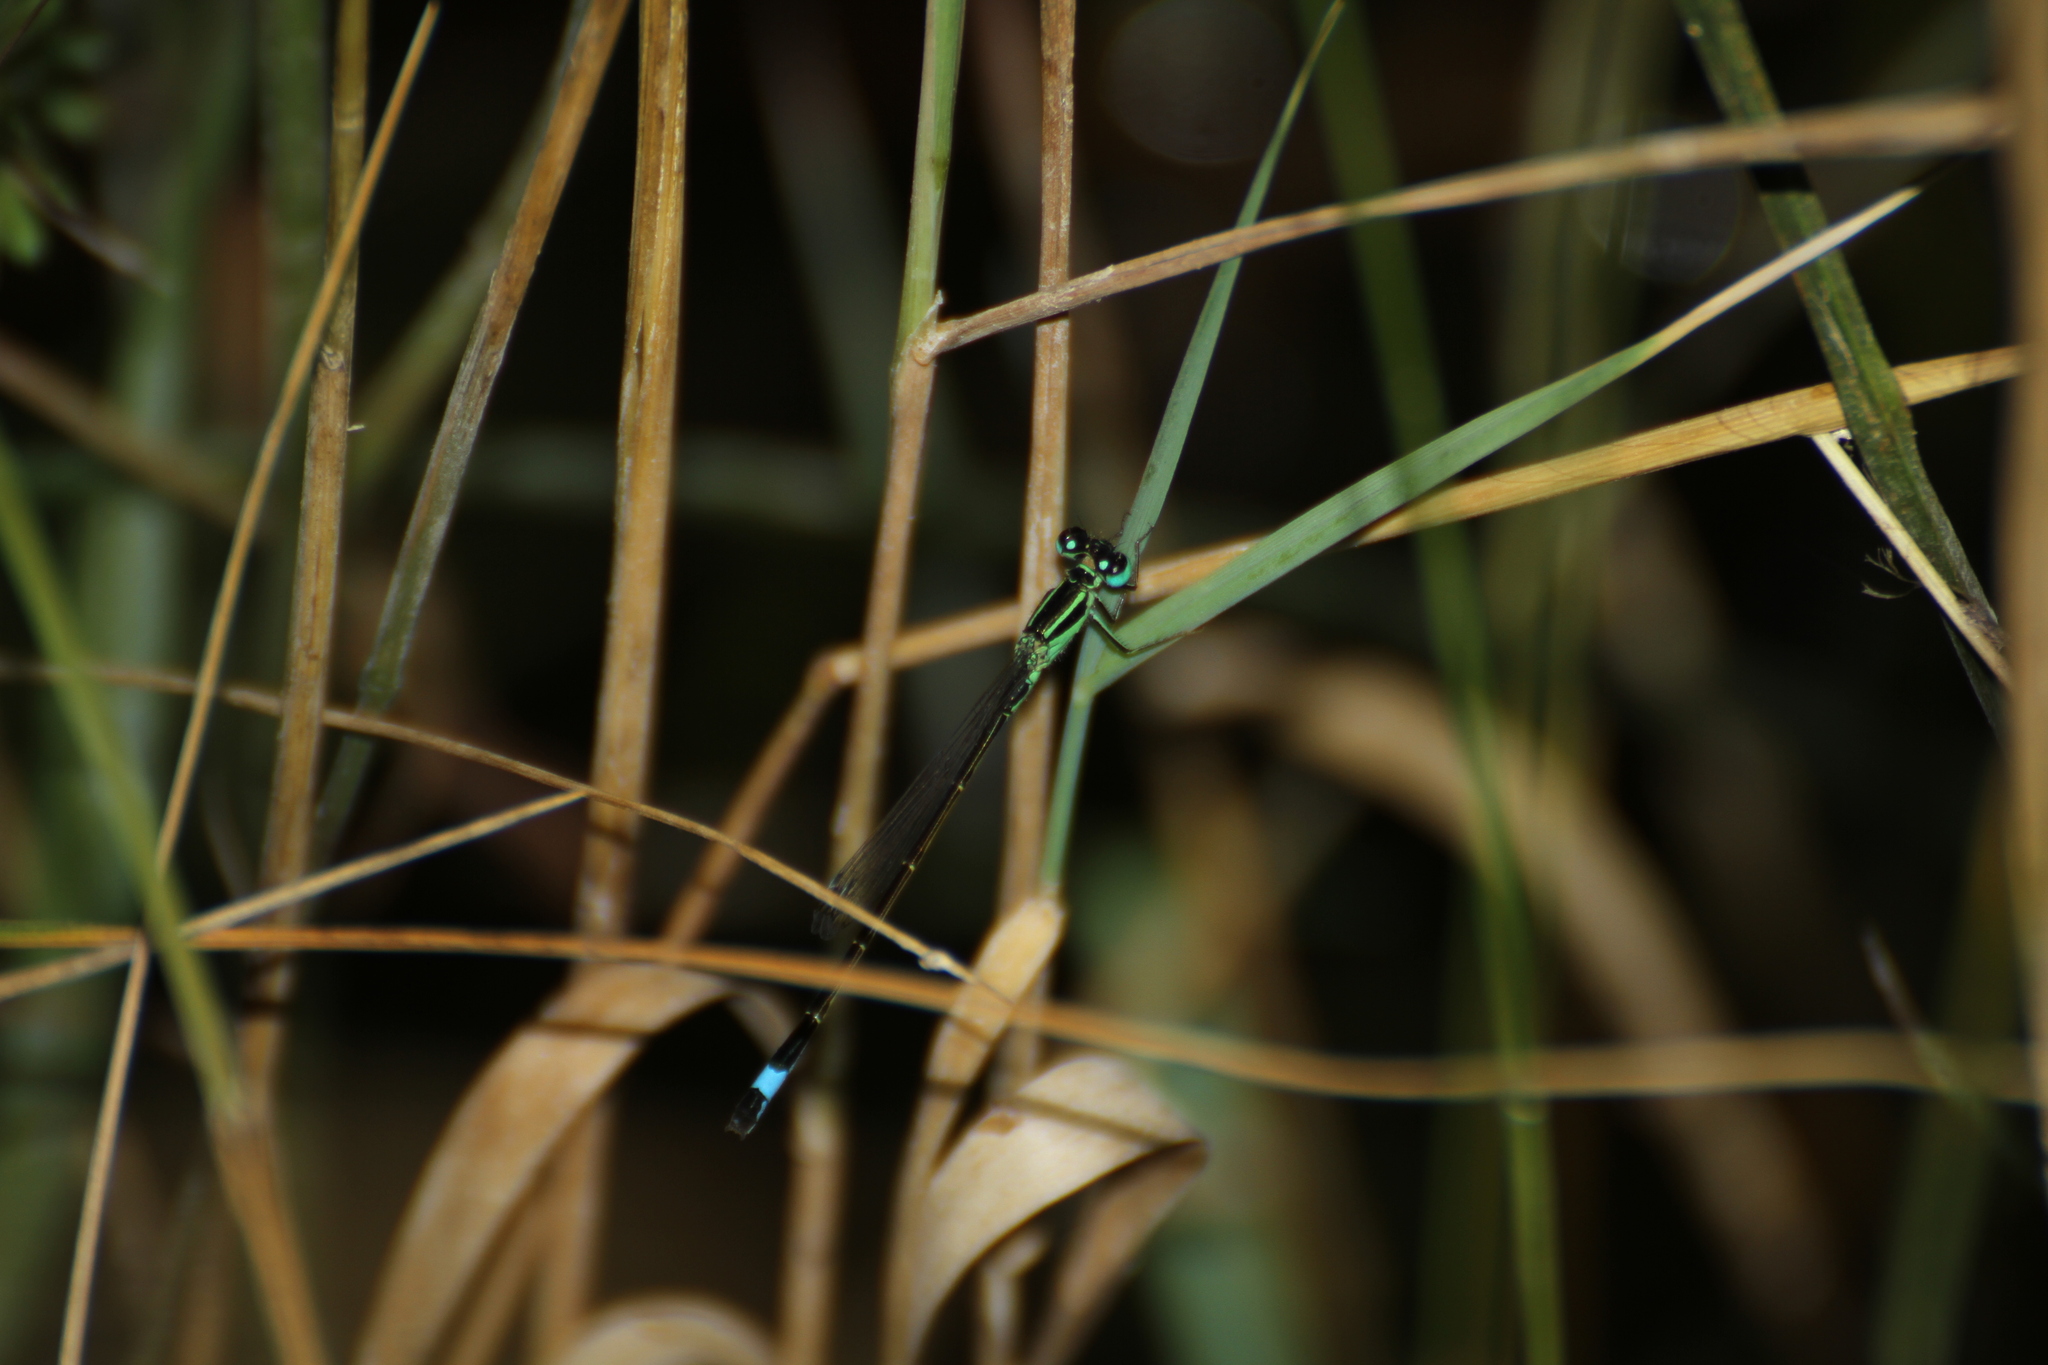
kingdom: Animalia
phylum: Arthropoda
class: Insecta
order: Odonata
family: Coenagrionidae
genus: Ischnura
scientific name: Ischnura elegans
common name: Blue-tailed damselfly
